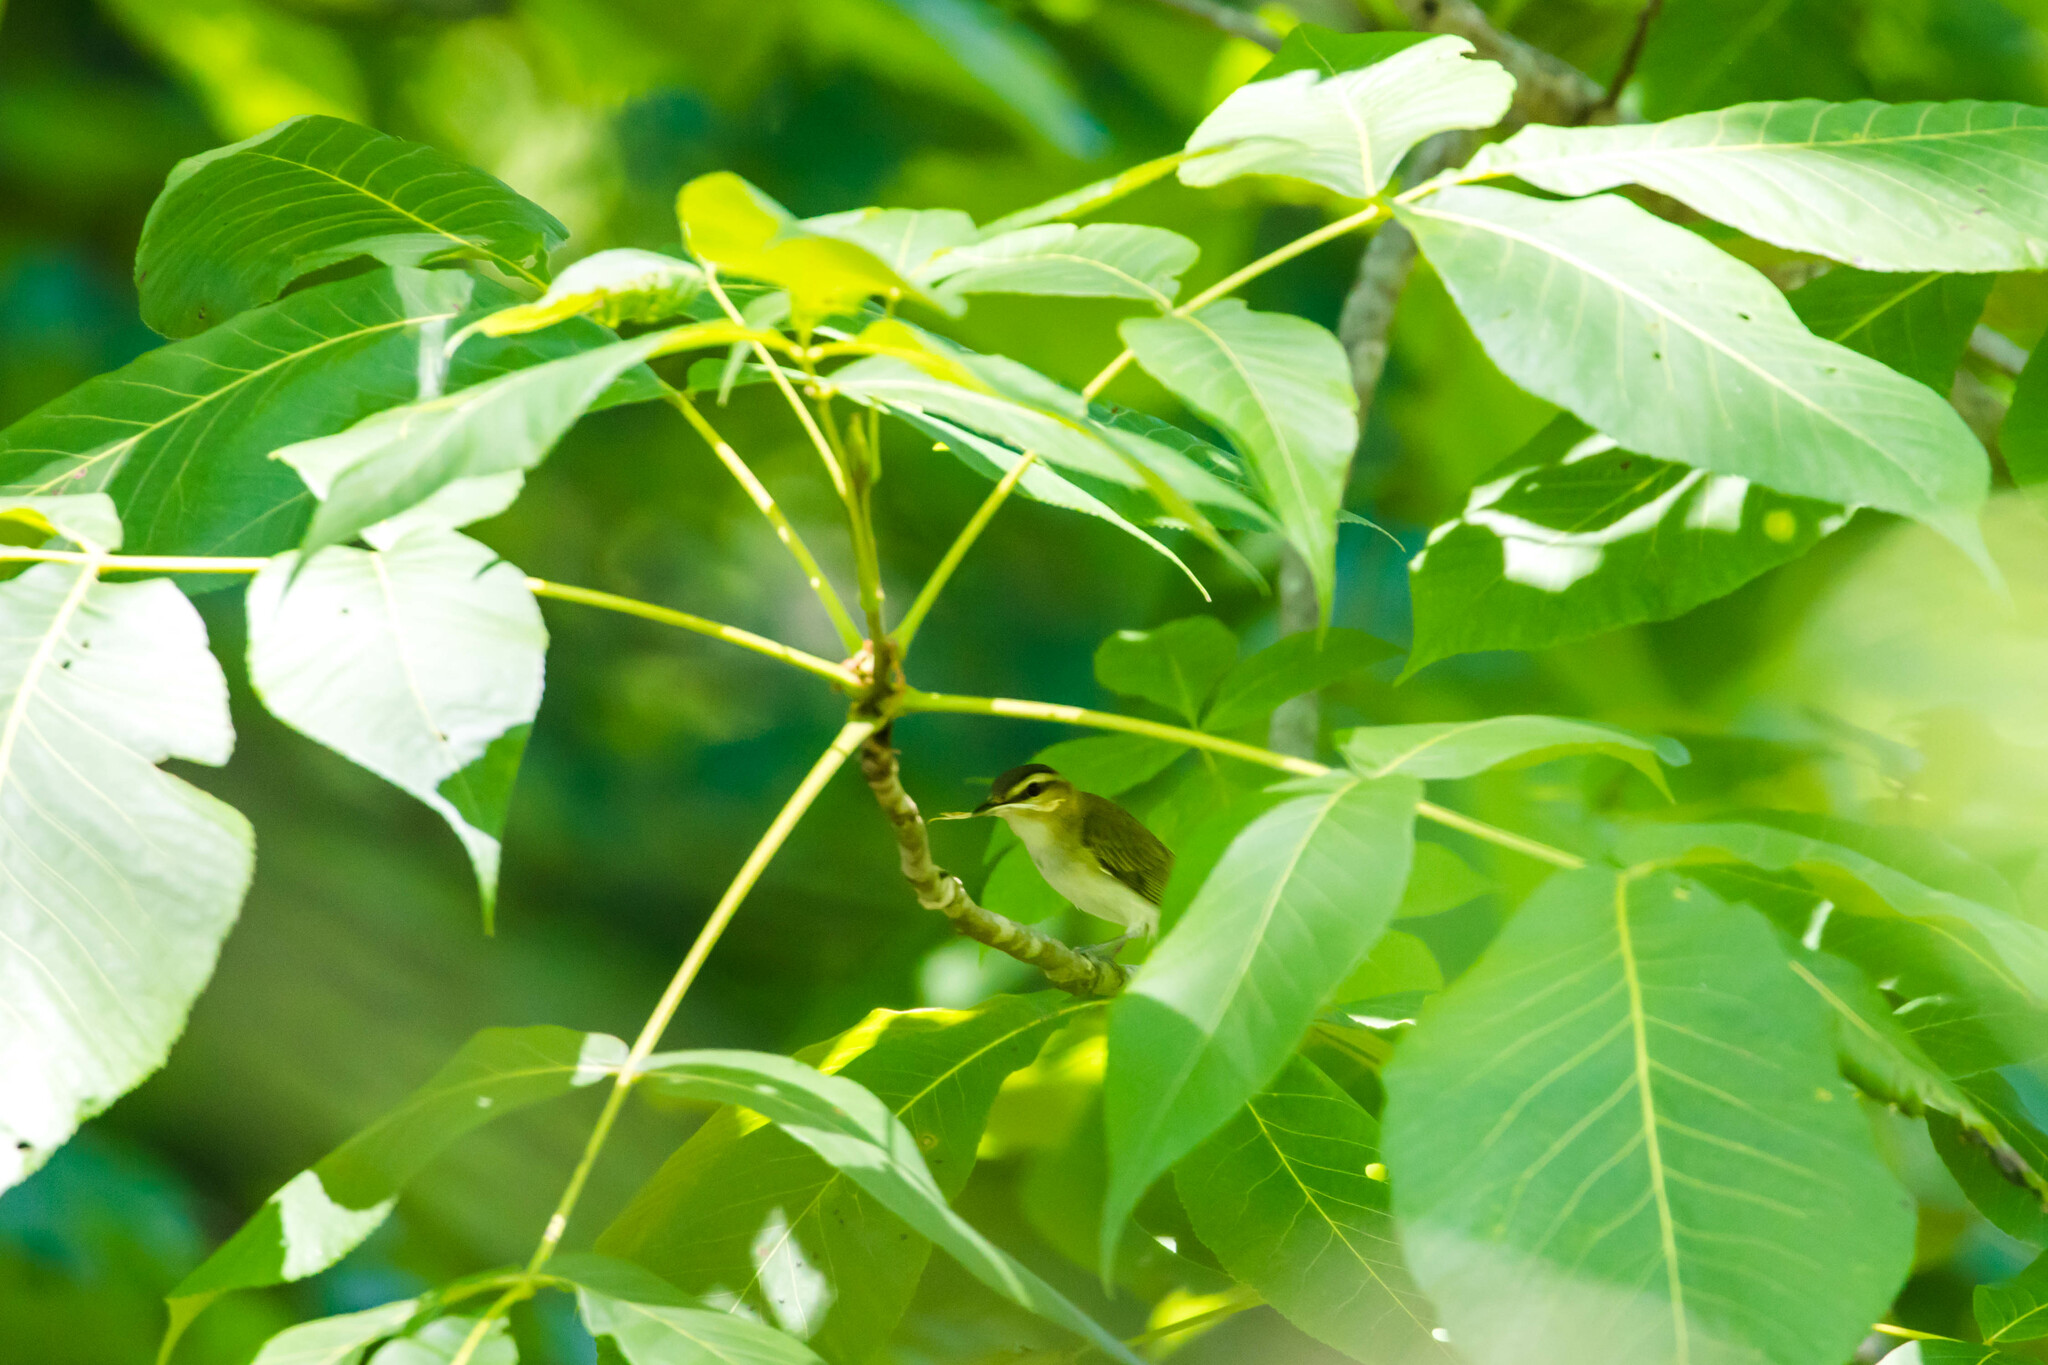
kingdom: Animalia
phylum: Chordata
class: Aves
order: Passeriformes
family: Vireonidae
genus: Vireo
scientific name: Vireo olivaceus
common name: Red-eyed vireo
